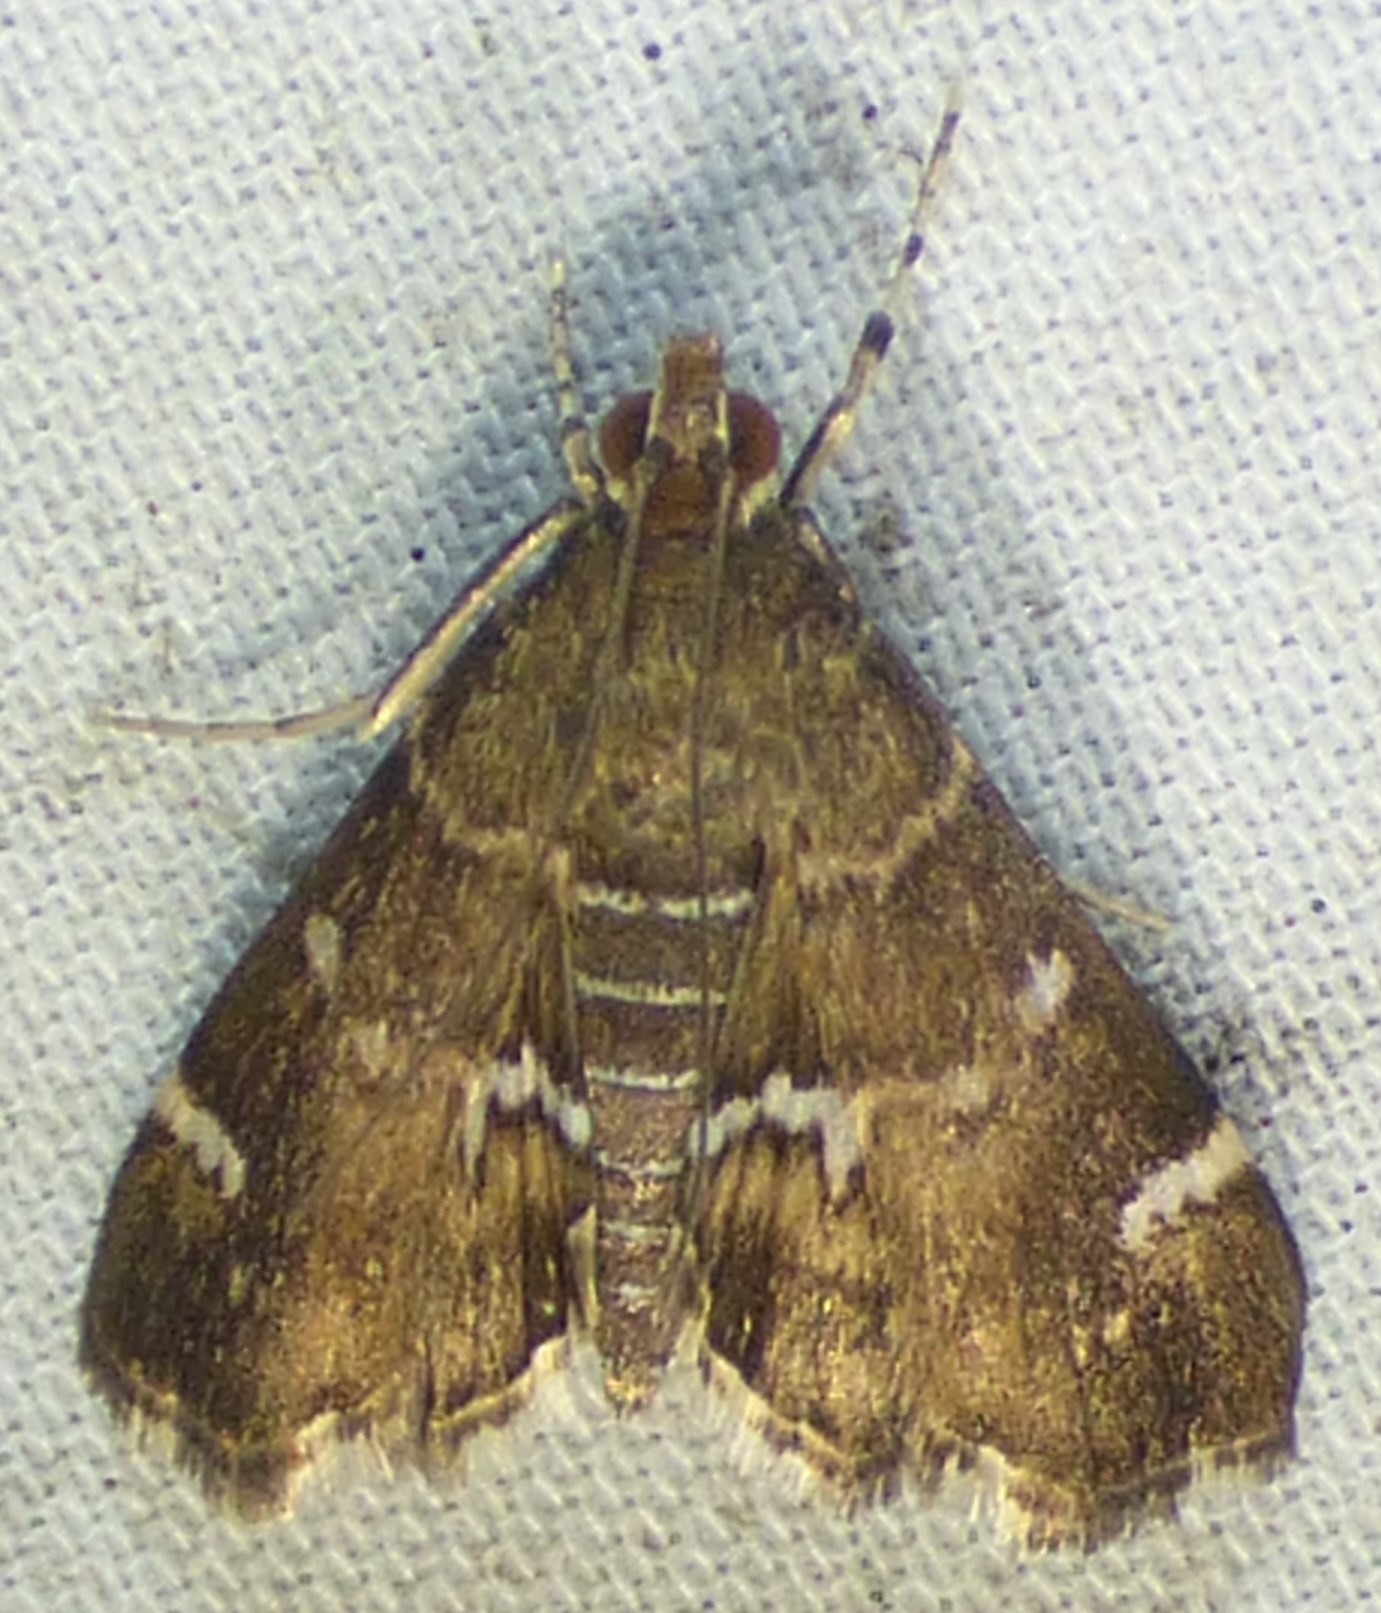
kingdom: Animalia
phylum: Arthropoda
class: Insecta
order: Lepidoptera
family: Crambidae
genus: Hymenia
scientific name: Hymenia perspectalis
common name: Spotted beet webworm
